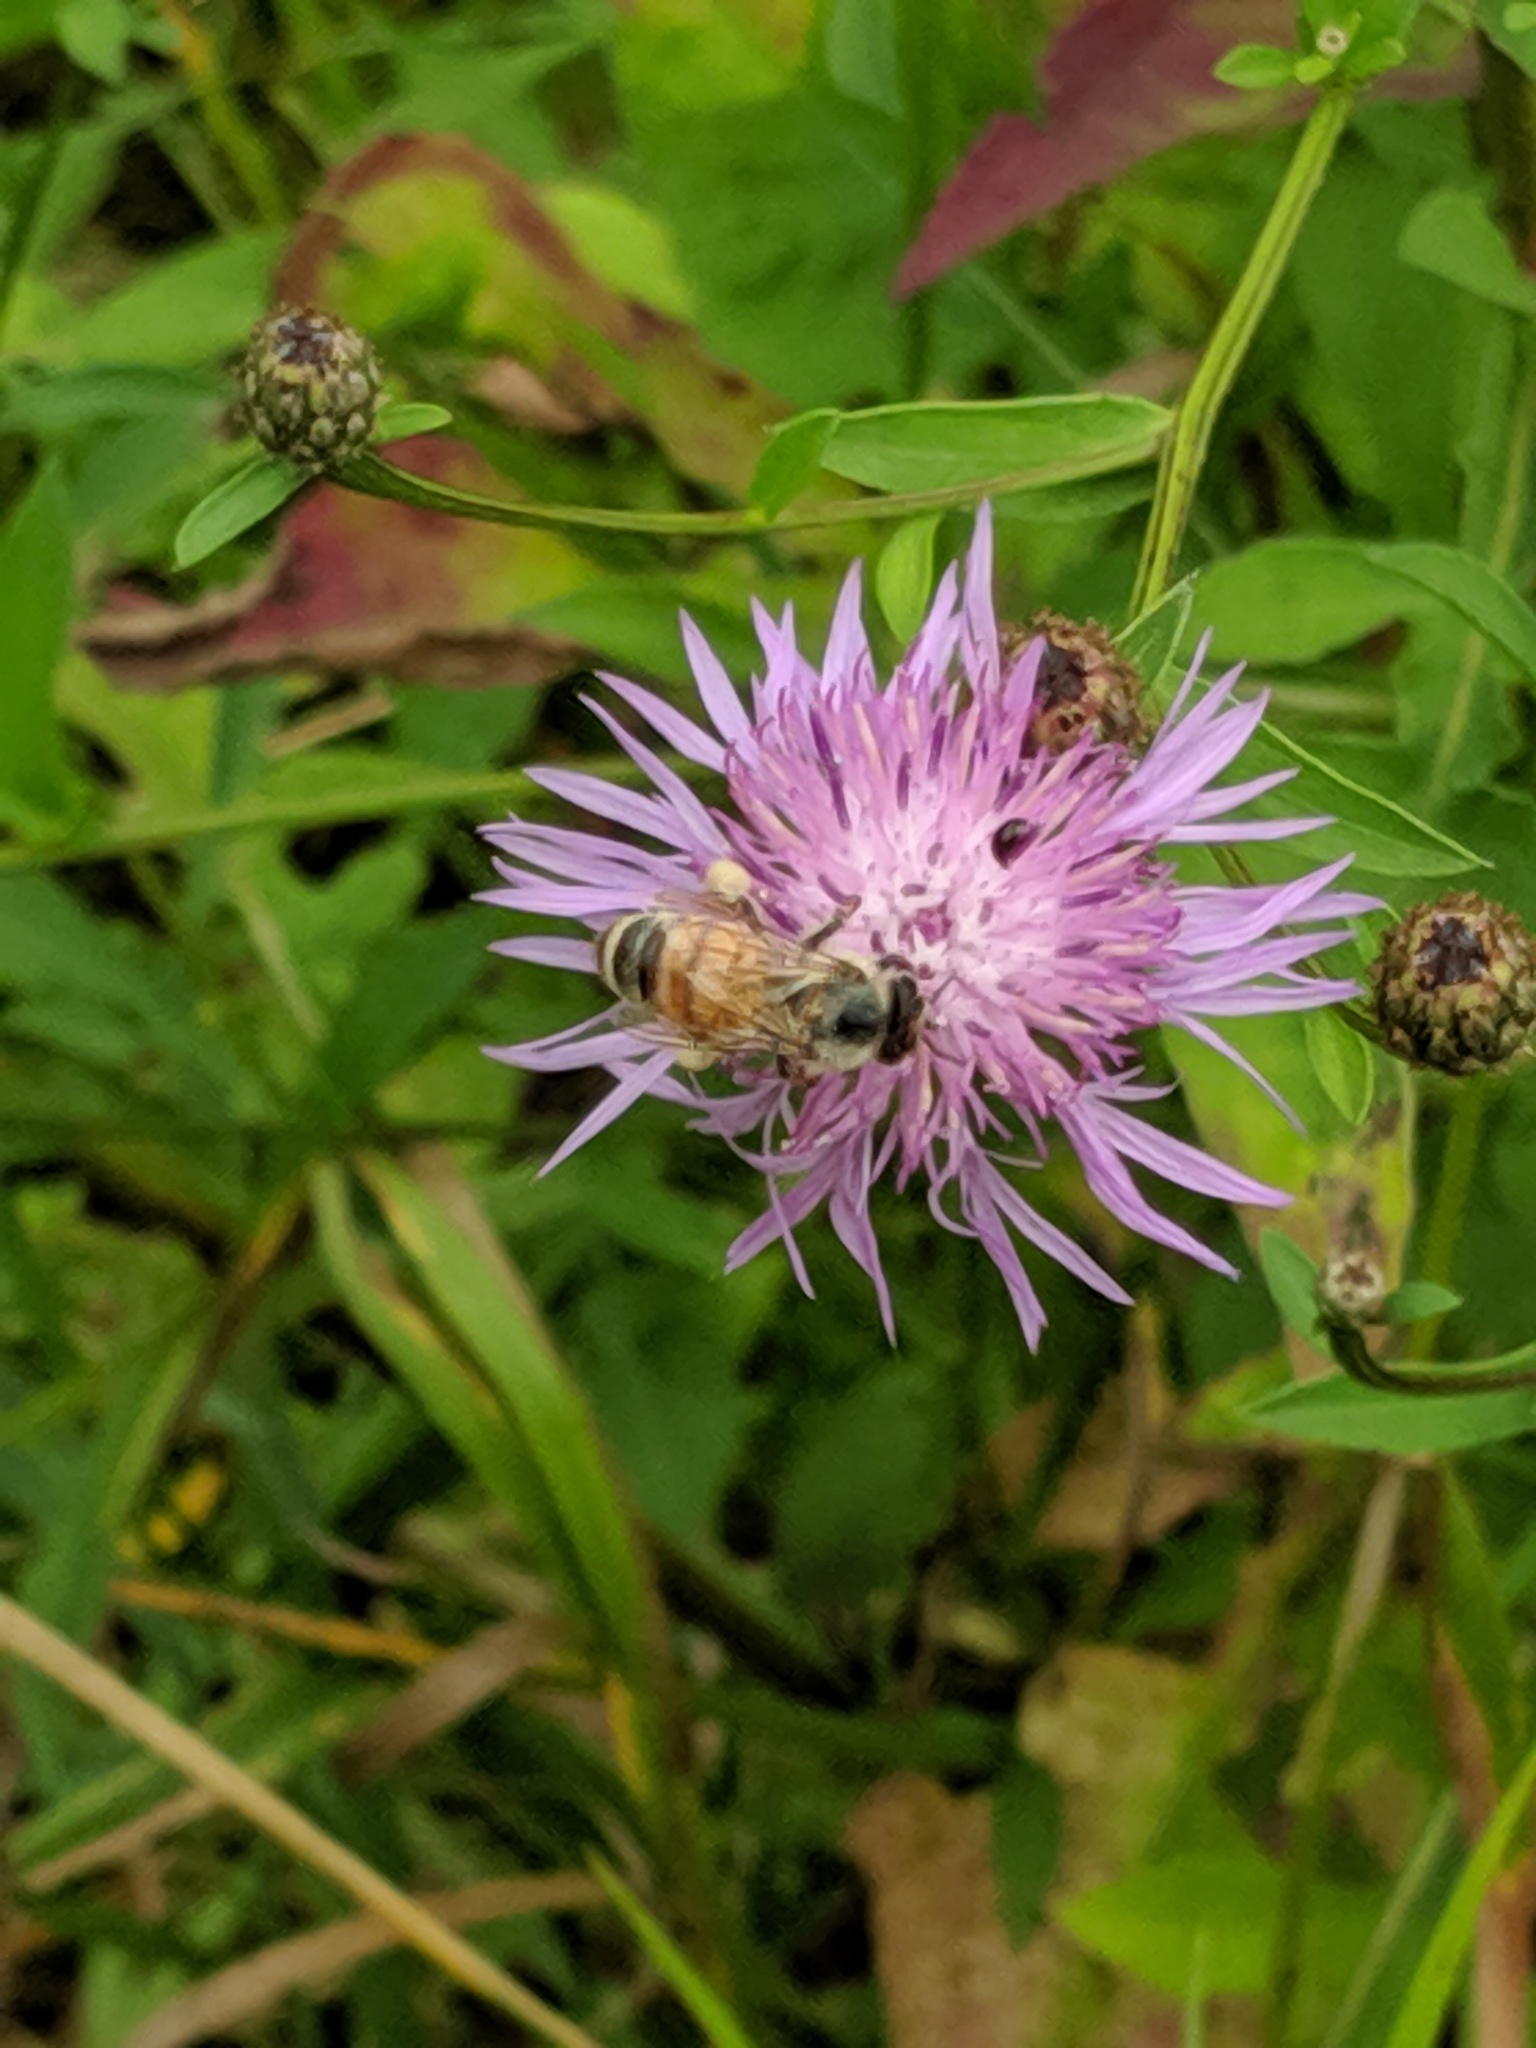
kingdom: Animalia
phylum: Arthropoda
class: Insecta
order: Hymenoptera
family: Apidae
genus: Apis
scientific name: Apis mellifera
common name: Honey bee
